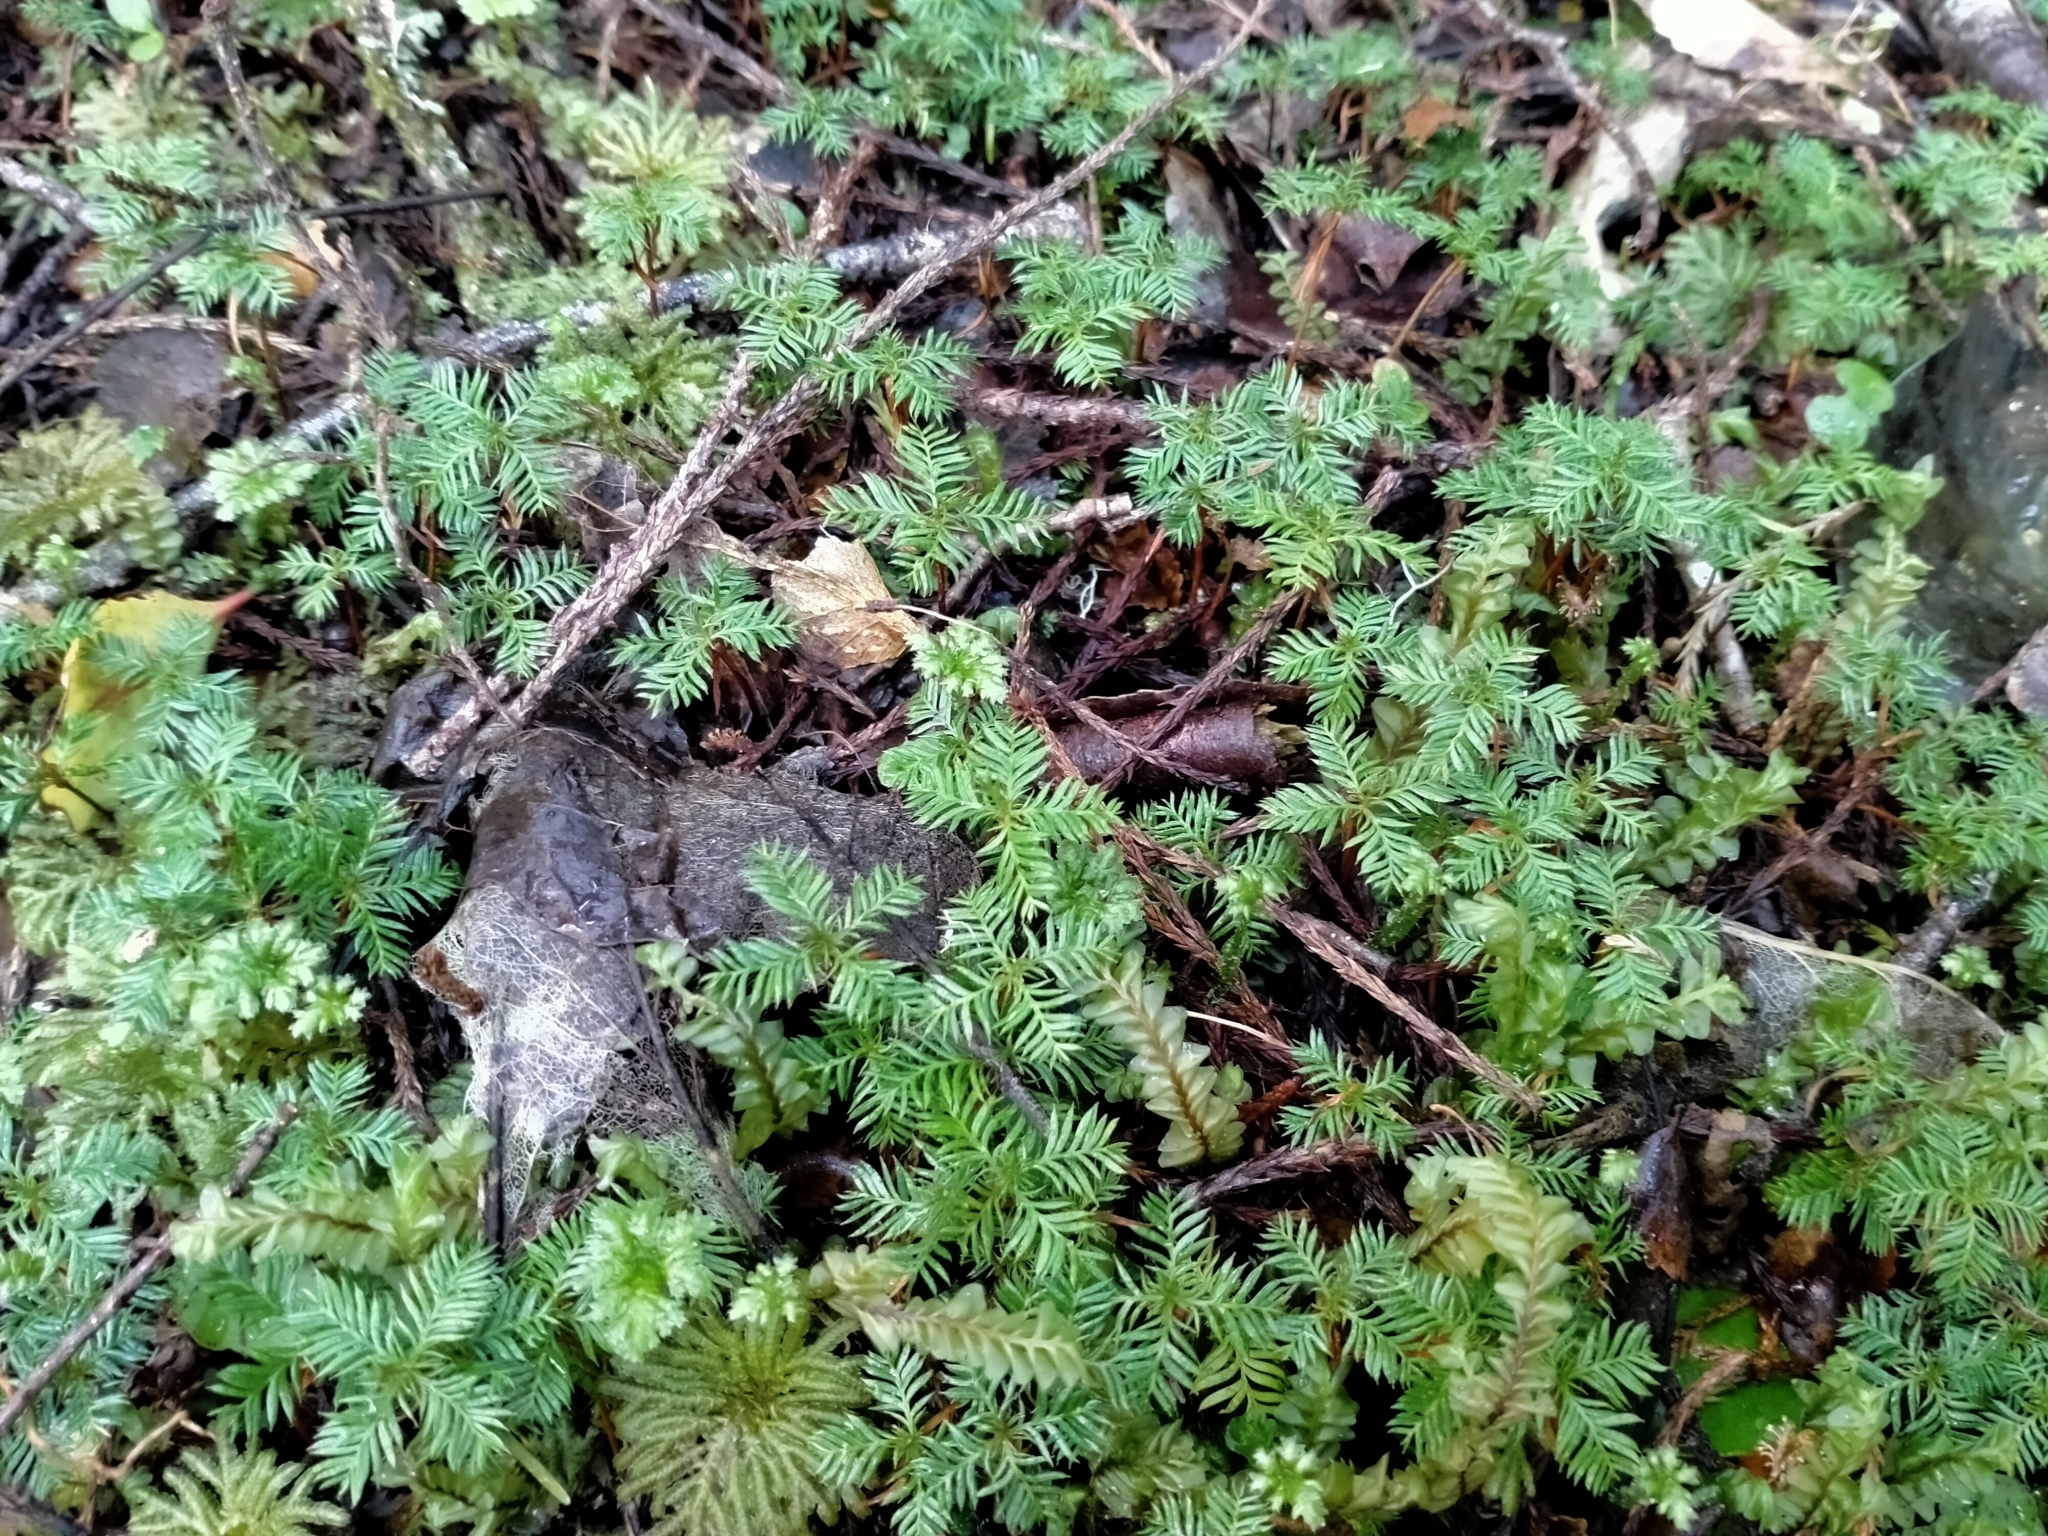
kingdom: Plantae
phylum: Tracheophyta
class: Pinopsida
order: Pinales
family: Podocarpaceae
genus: Dacrycarpus
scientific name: Dacrycarpus dacrydioides
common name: White pine
